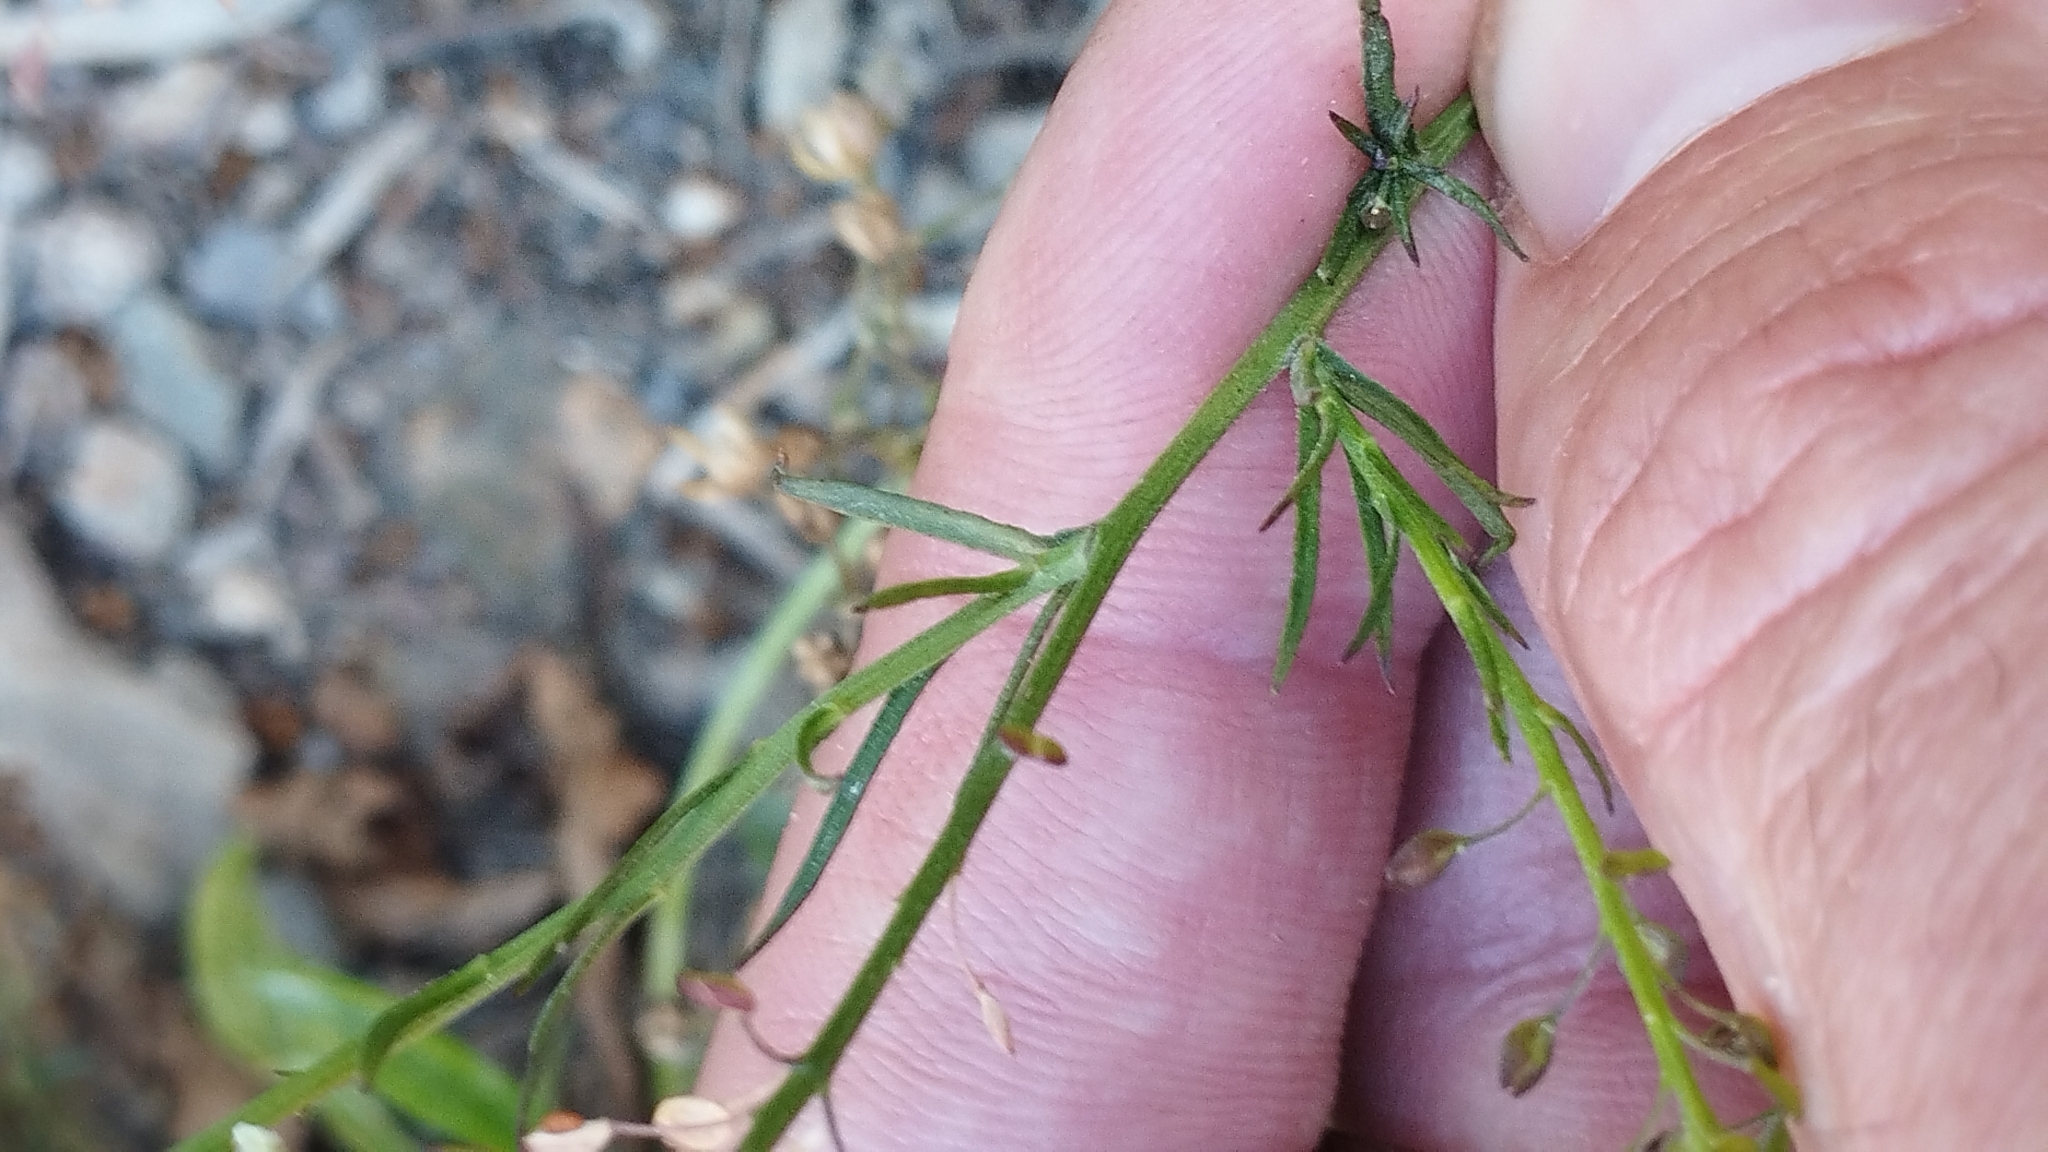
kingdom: Plantae
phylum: Tracheophyta
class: Magnoliopsida
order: Brassicales
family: Brassicaceae
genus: Lepidium
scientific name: Lepidium africanum
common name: African pepperwort
